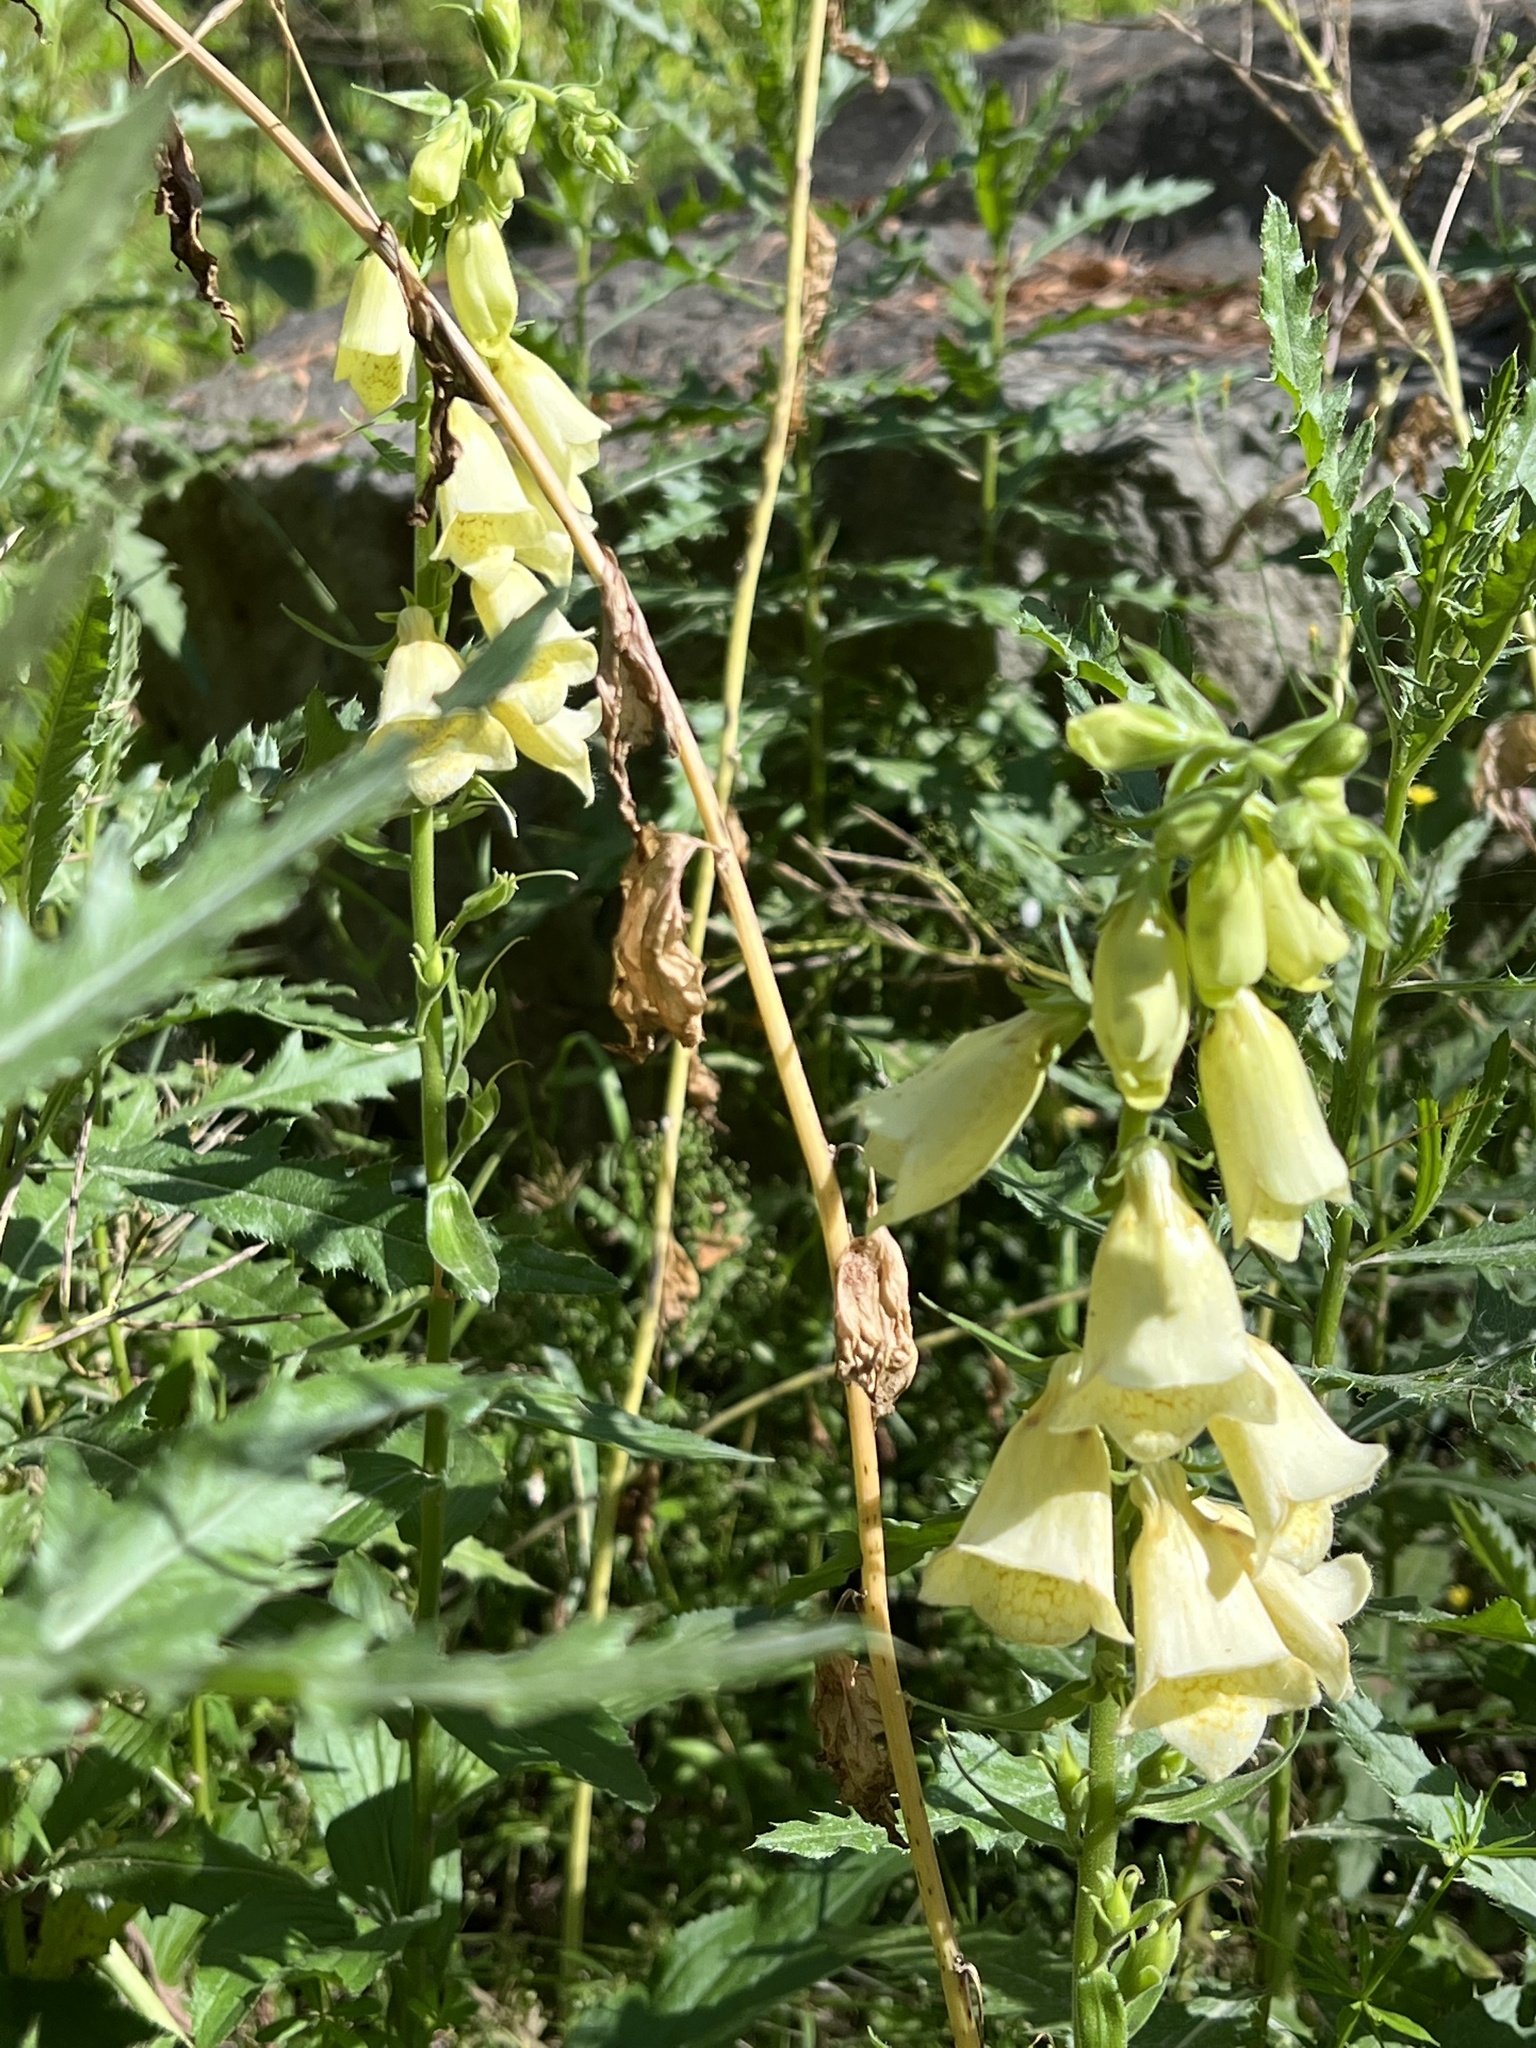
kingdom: Plantae
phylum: Tracheophyta
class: Magnoliopsida
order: Lamiales
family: Plantaginaceae
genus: Digitalis
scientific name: Digitalis grandiflora
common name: Yellow foxglove
